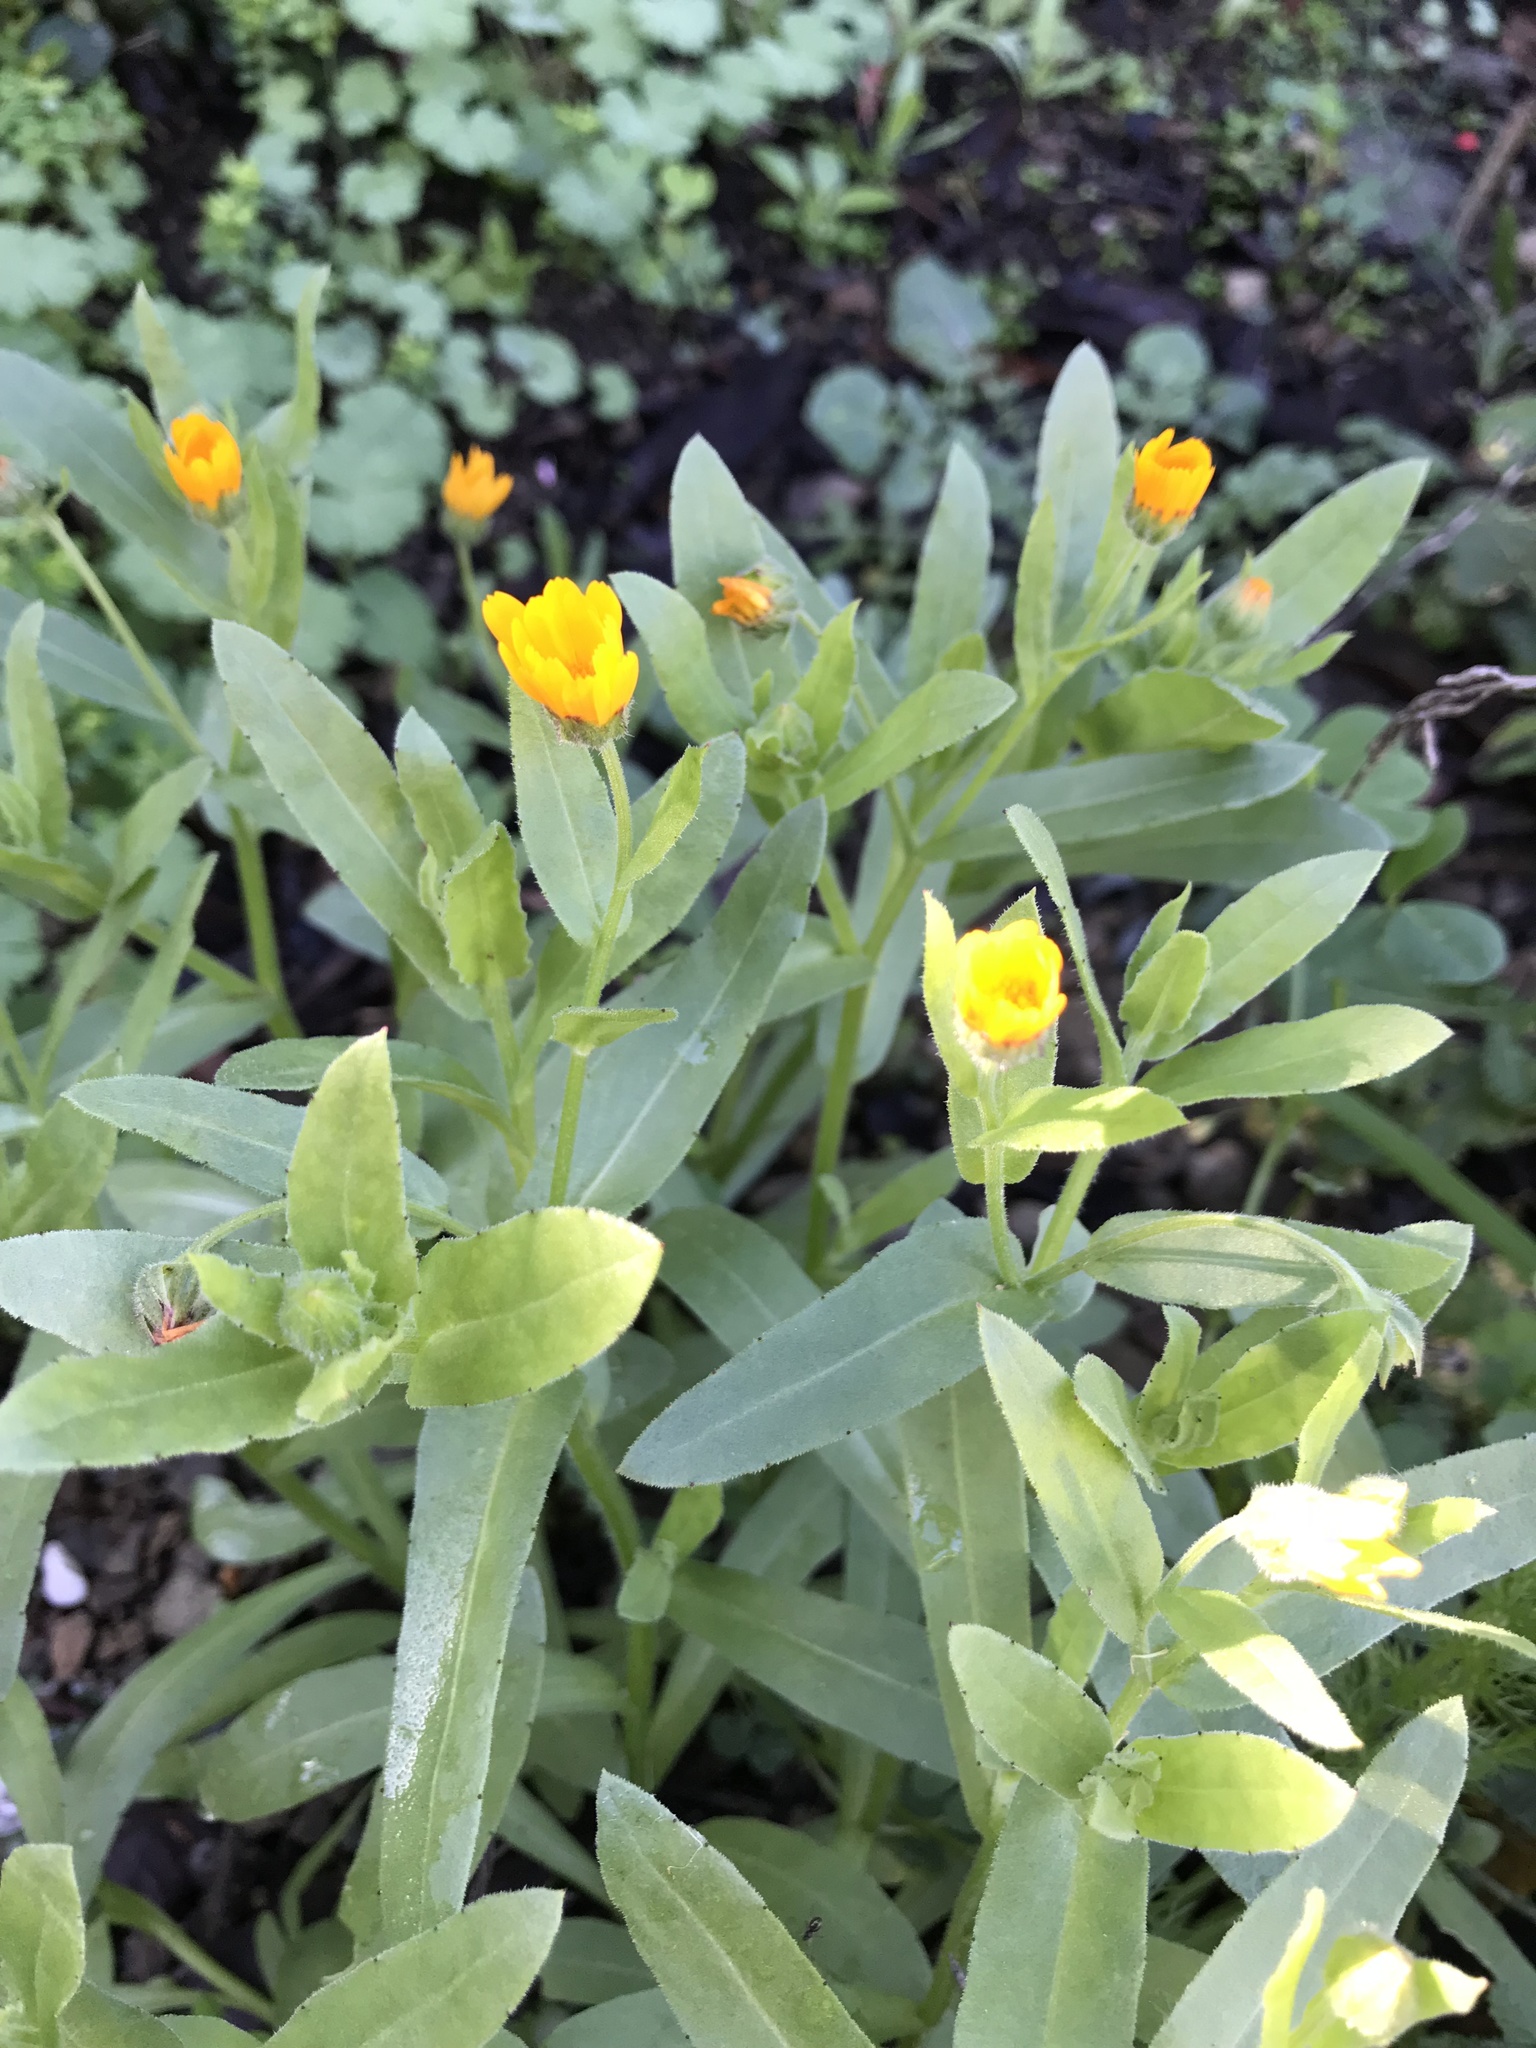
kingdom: Plantae
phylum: Tracheophyta
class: Magnoliopsida
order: Asterales
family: Asteraceae
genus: Calendula
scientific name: Calendula arvensis
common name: Field marigold
